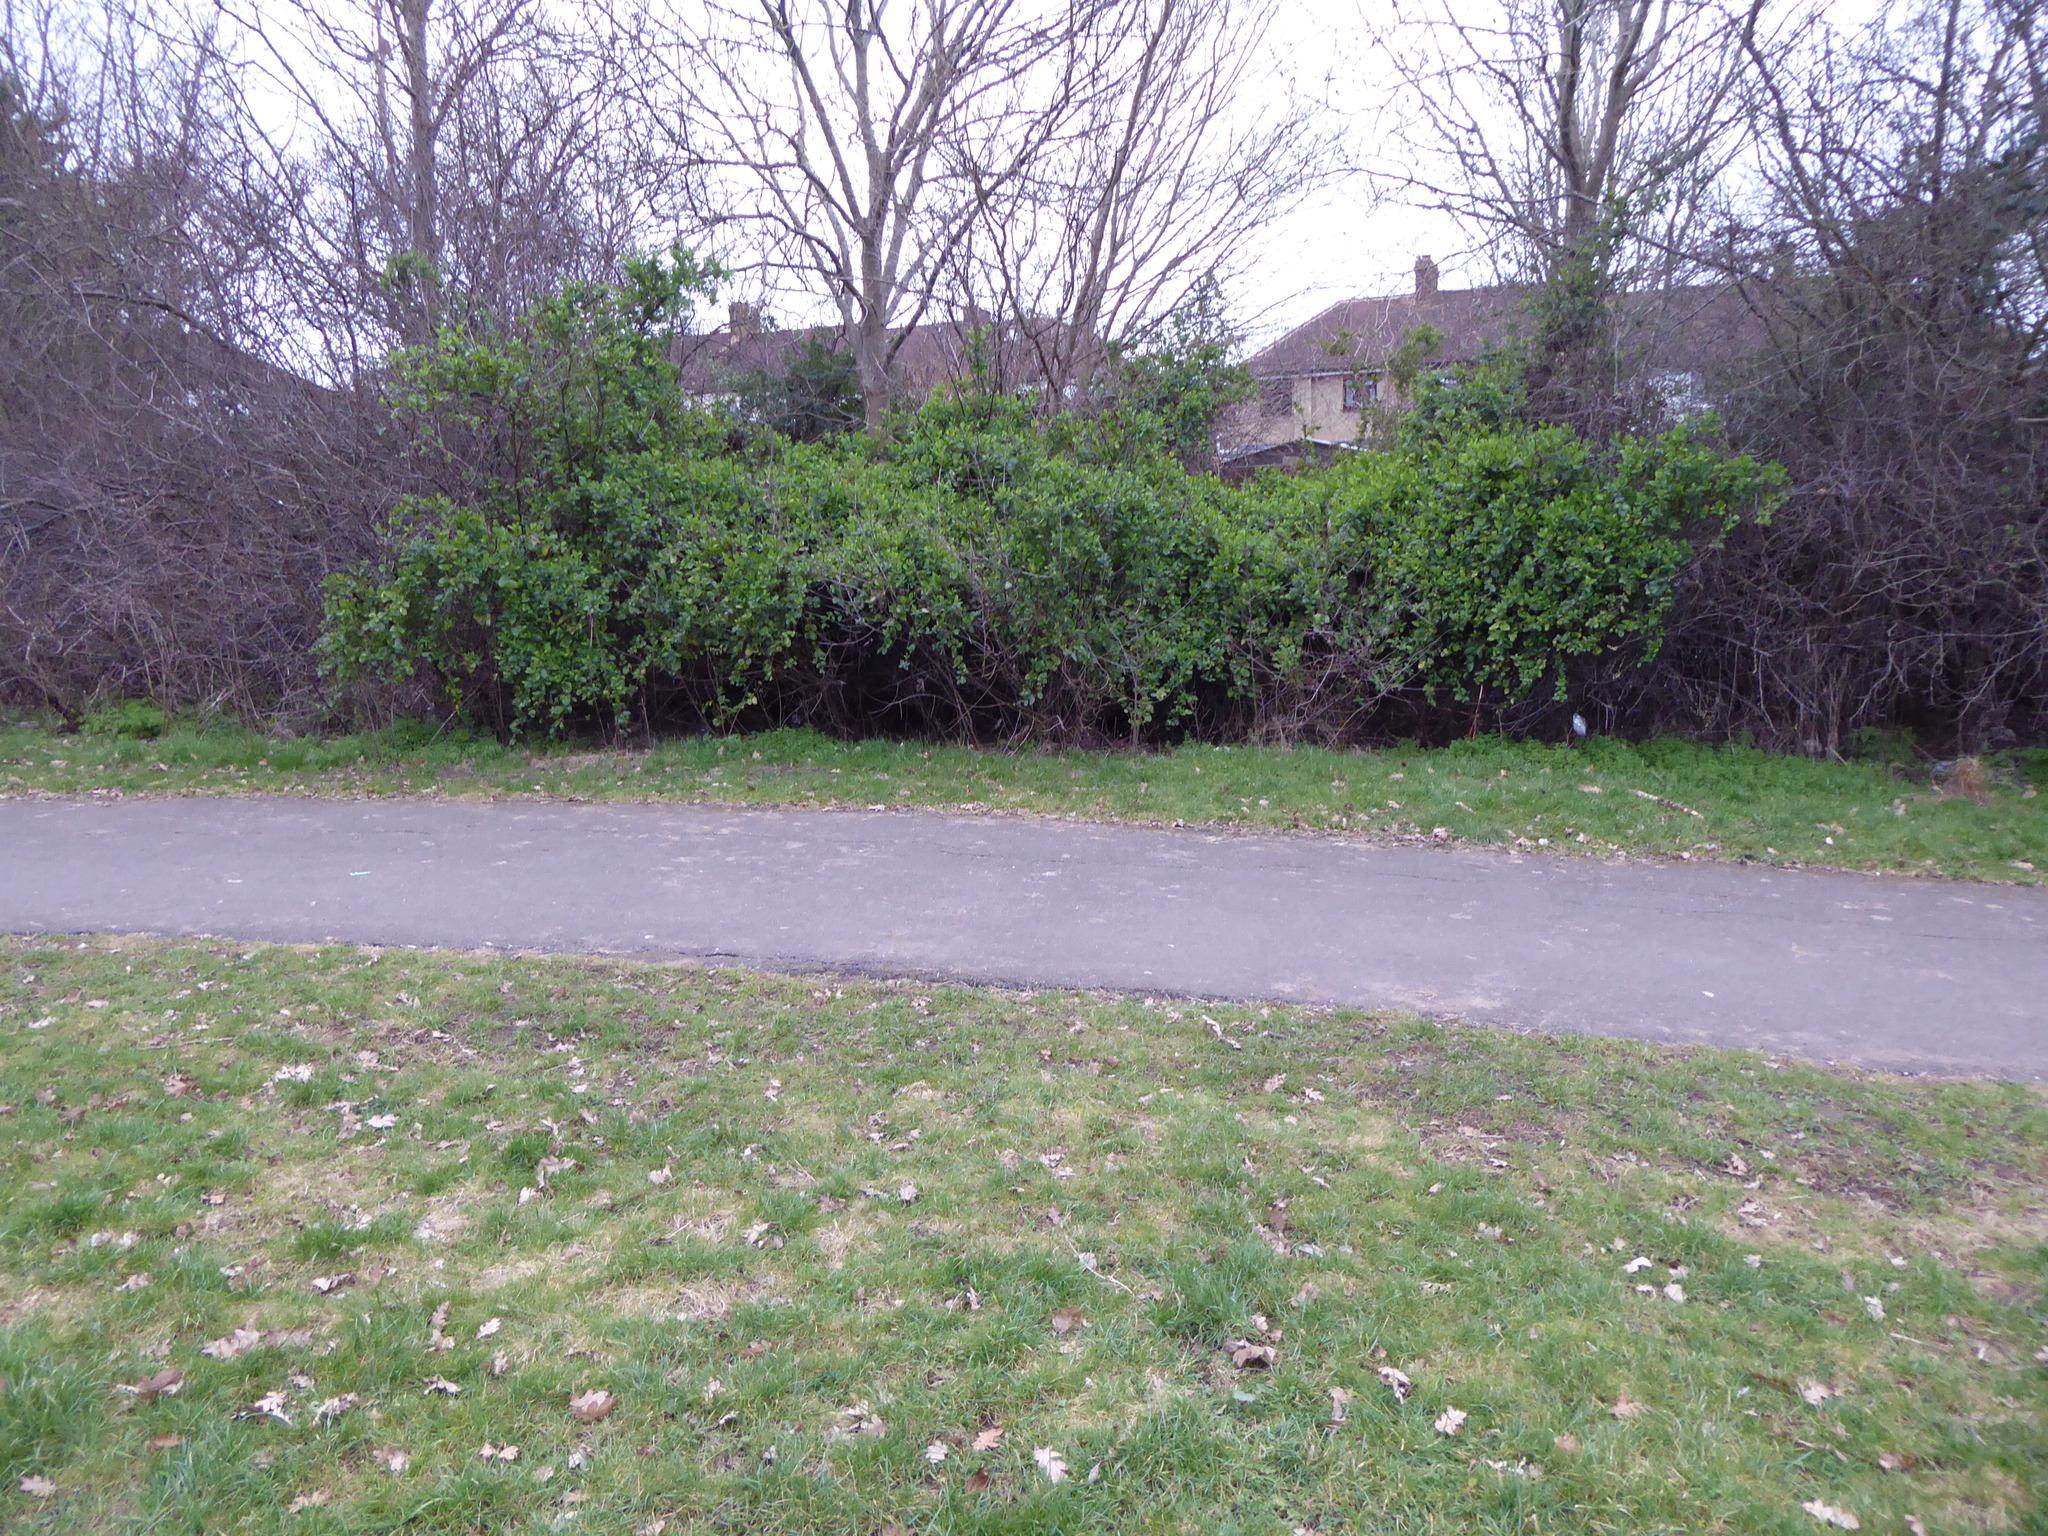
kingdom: Plantae
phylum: Tracheophyta
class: Magnoliopsida
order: Dipsacales
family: Caprifoliaceae
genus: Lonicera
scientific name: Lonicera japonica
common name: Japanese honeysuckle
